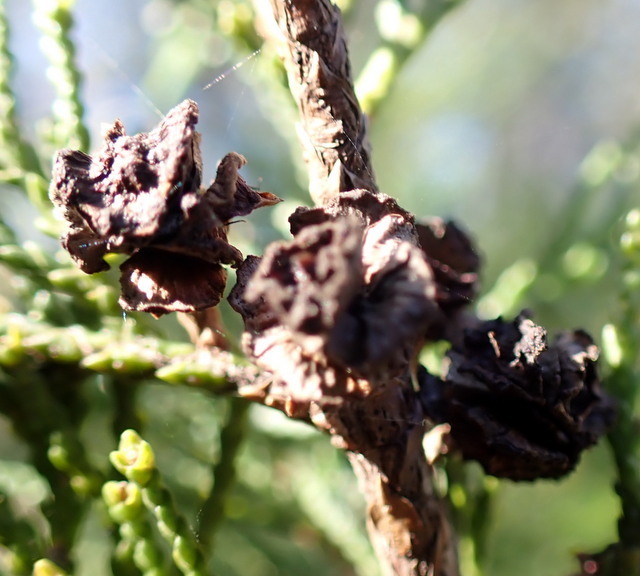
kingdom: Plantae
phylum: Tracheophyta
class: Pinopsida
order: Pinales
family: Cupressaceae
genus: Chamaecyparis
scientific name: Chamaecyparis thyoides
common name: Atlantic white cedar
